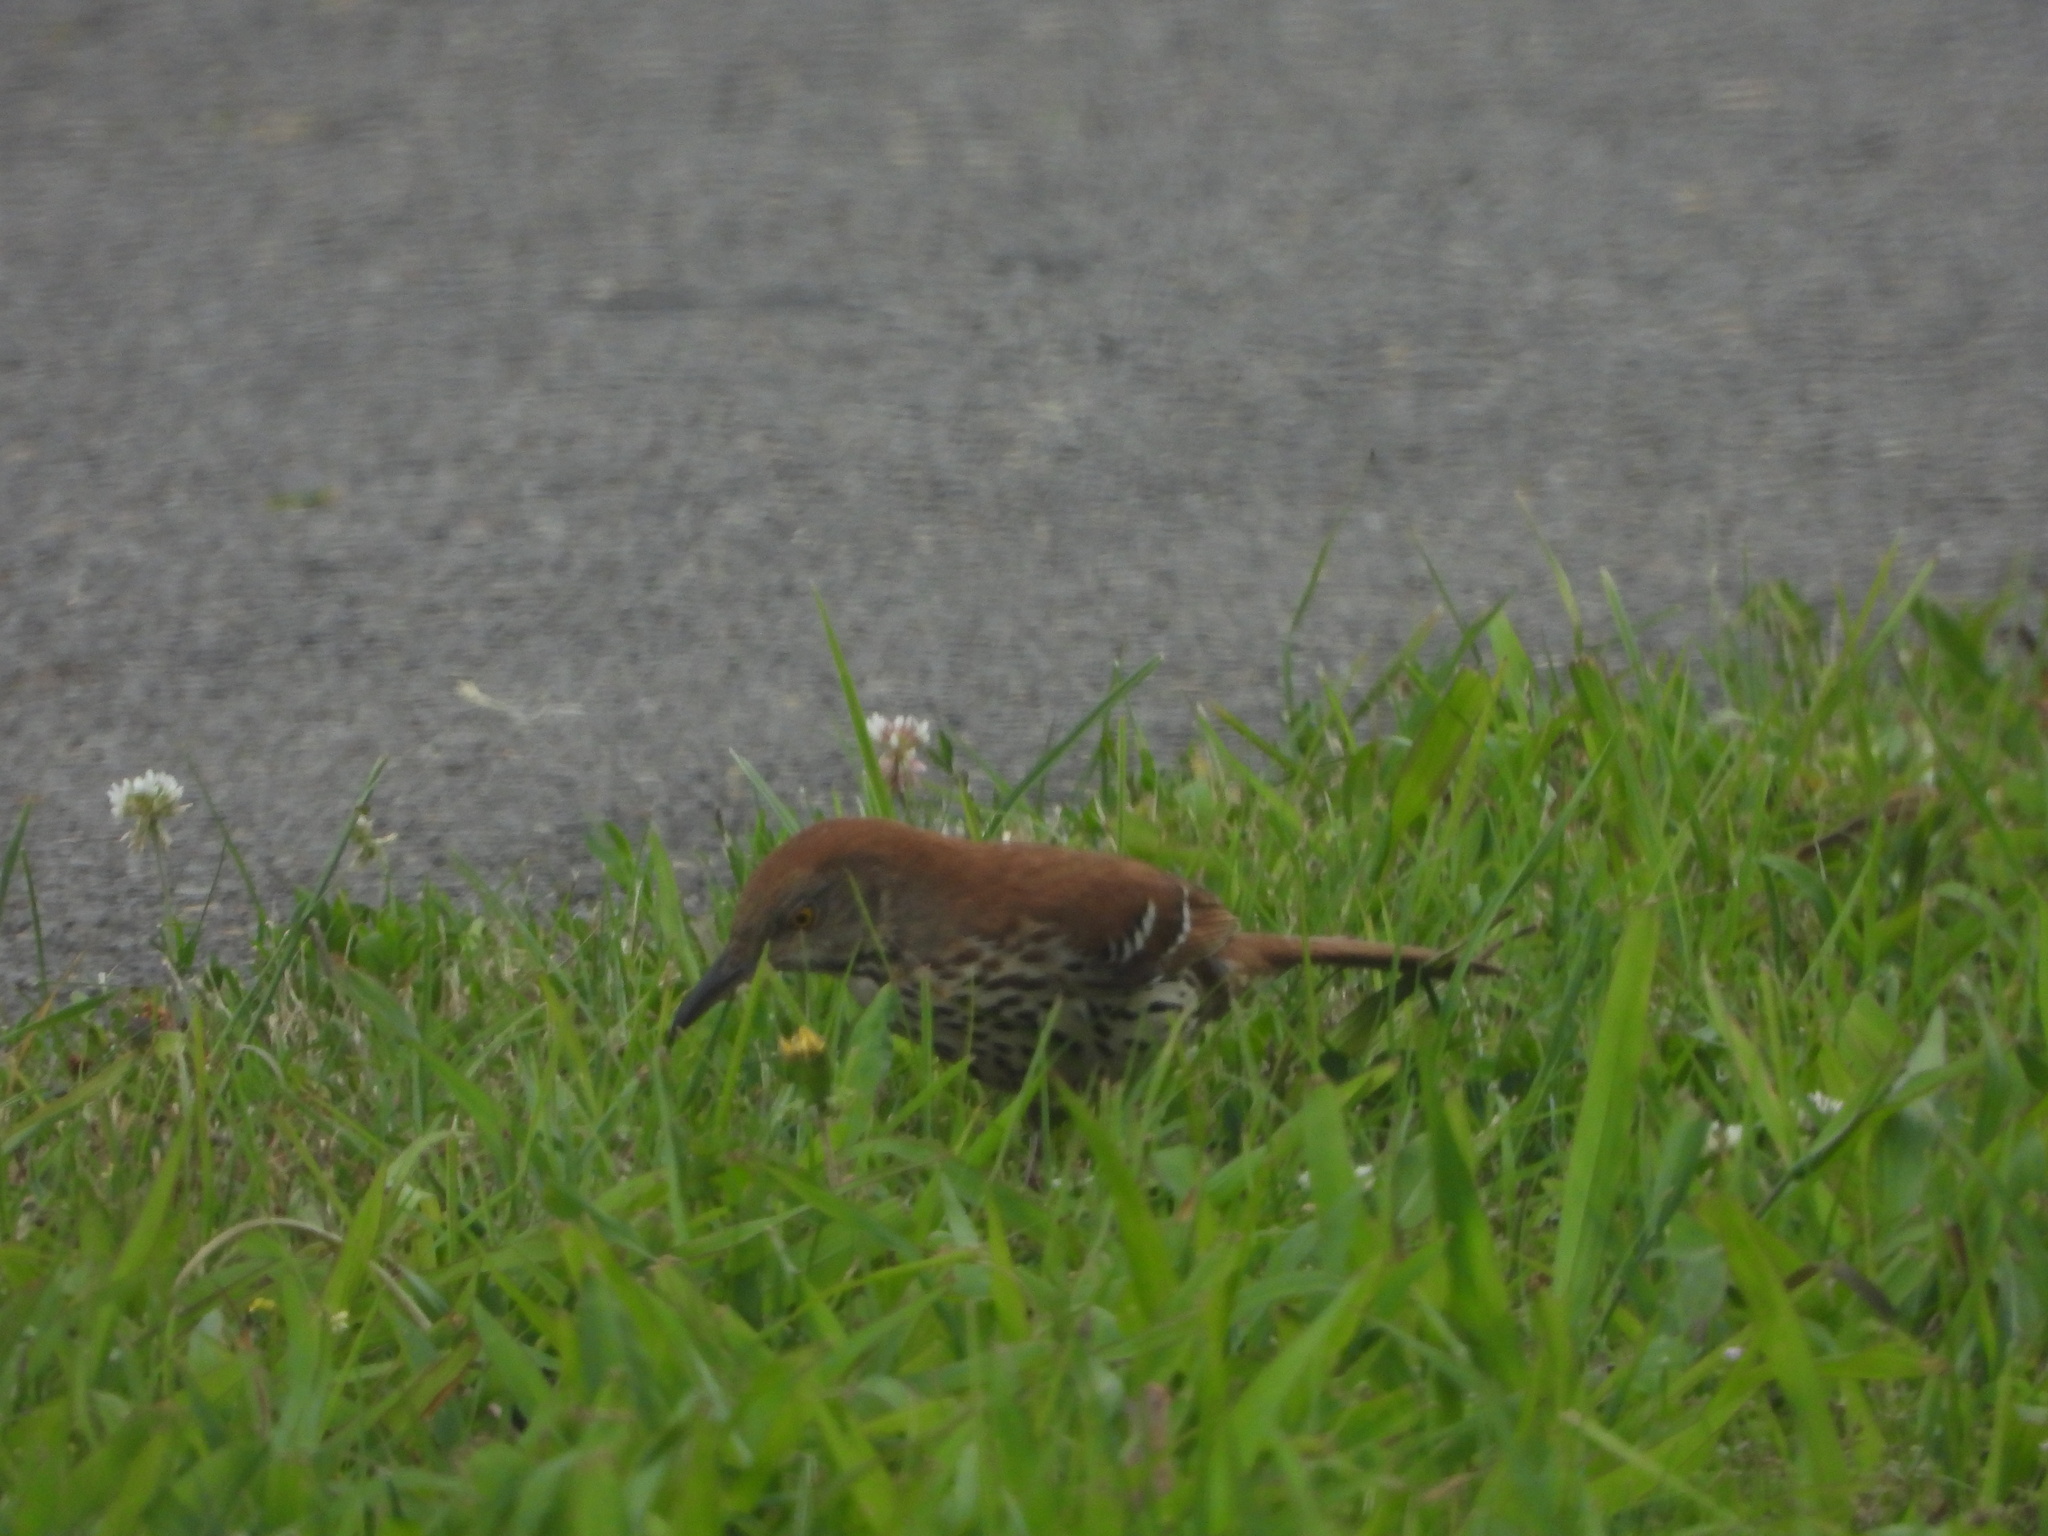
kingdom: Animalia
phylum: Chordata
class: Aves
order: Passeriformes
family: Mimidae
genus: Toxostoma
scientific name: Toxostoma rufum
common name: Brown thrasher
